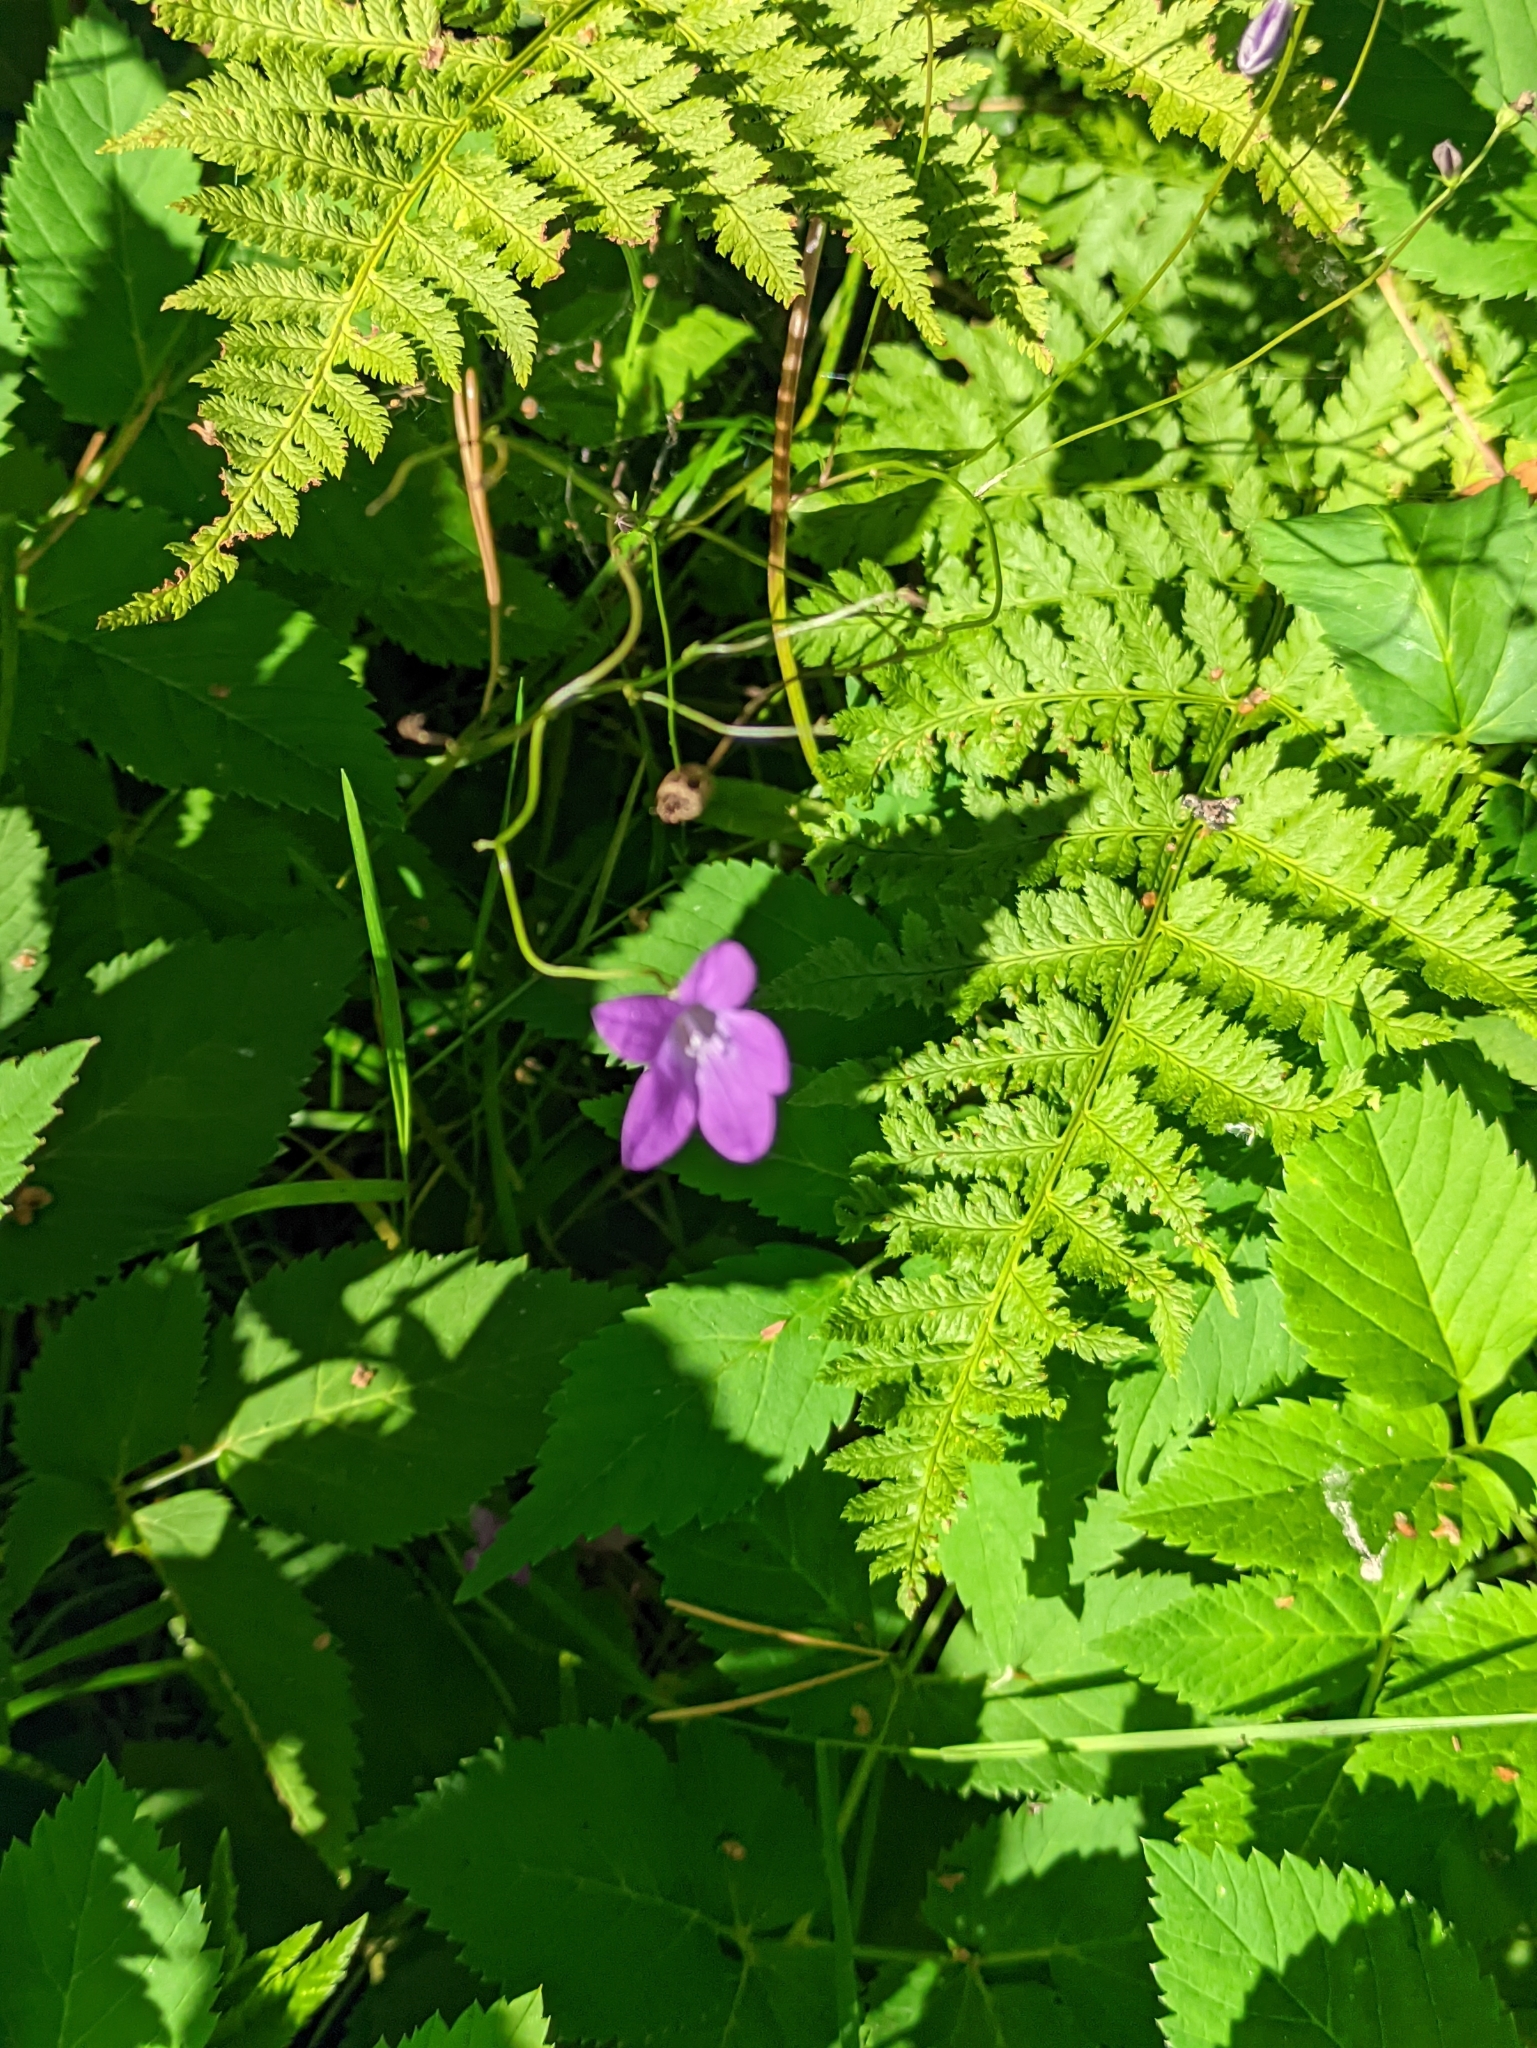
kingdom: Plantae
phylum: Tracheophyta
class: Magnoliopsida
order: Asterales
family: Campanulaceae
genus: Campanula
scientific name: Campanula patula
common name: Spreading bellflower
